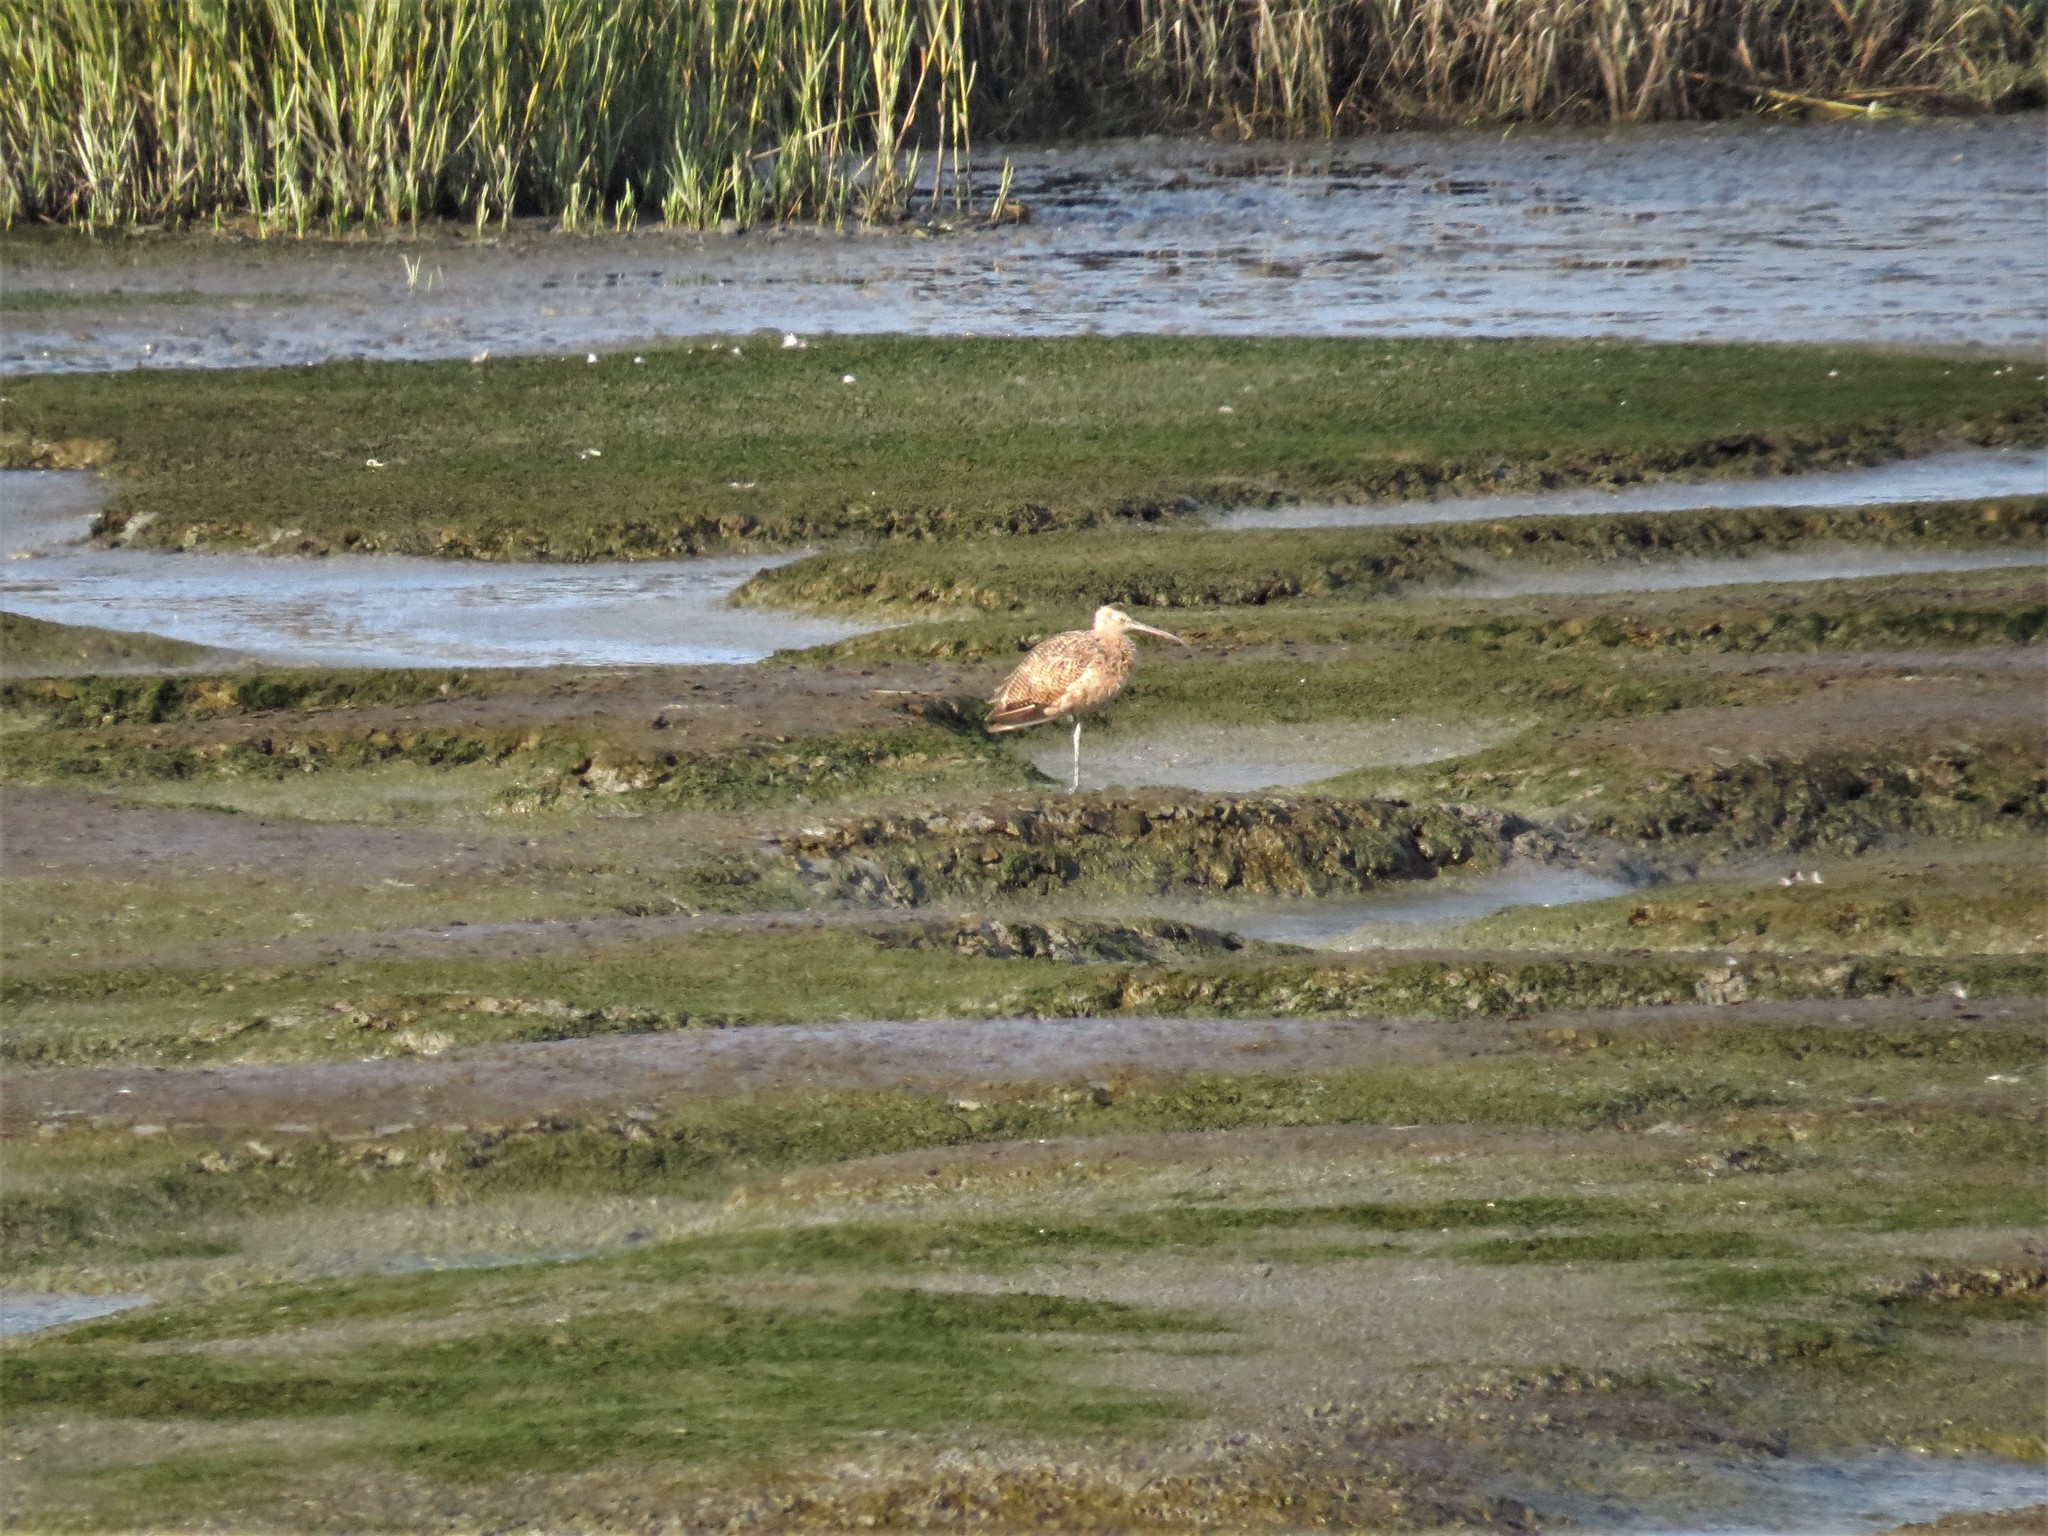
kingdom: Animalia
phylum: Chordata
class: Aves
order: Charadriiformes
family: Scolopacidae
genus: Limosa
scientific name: Limosa fedoa
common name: Marbled godwit
